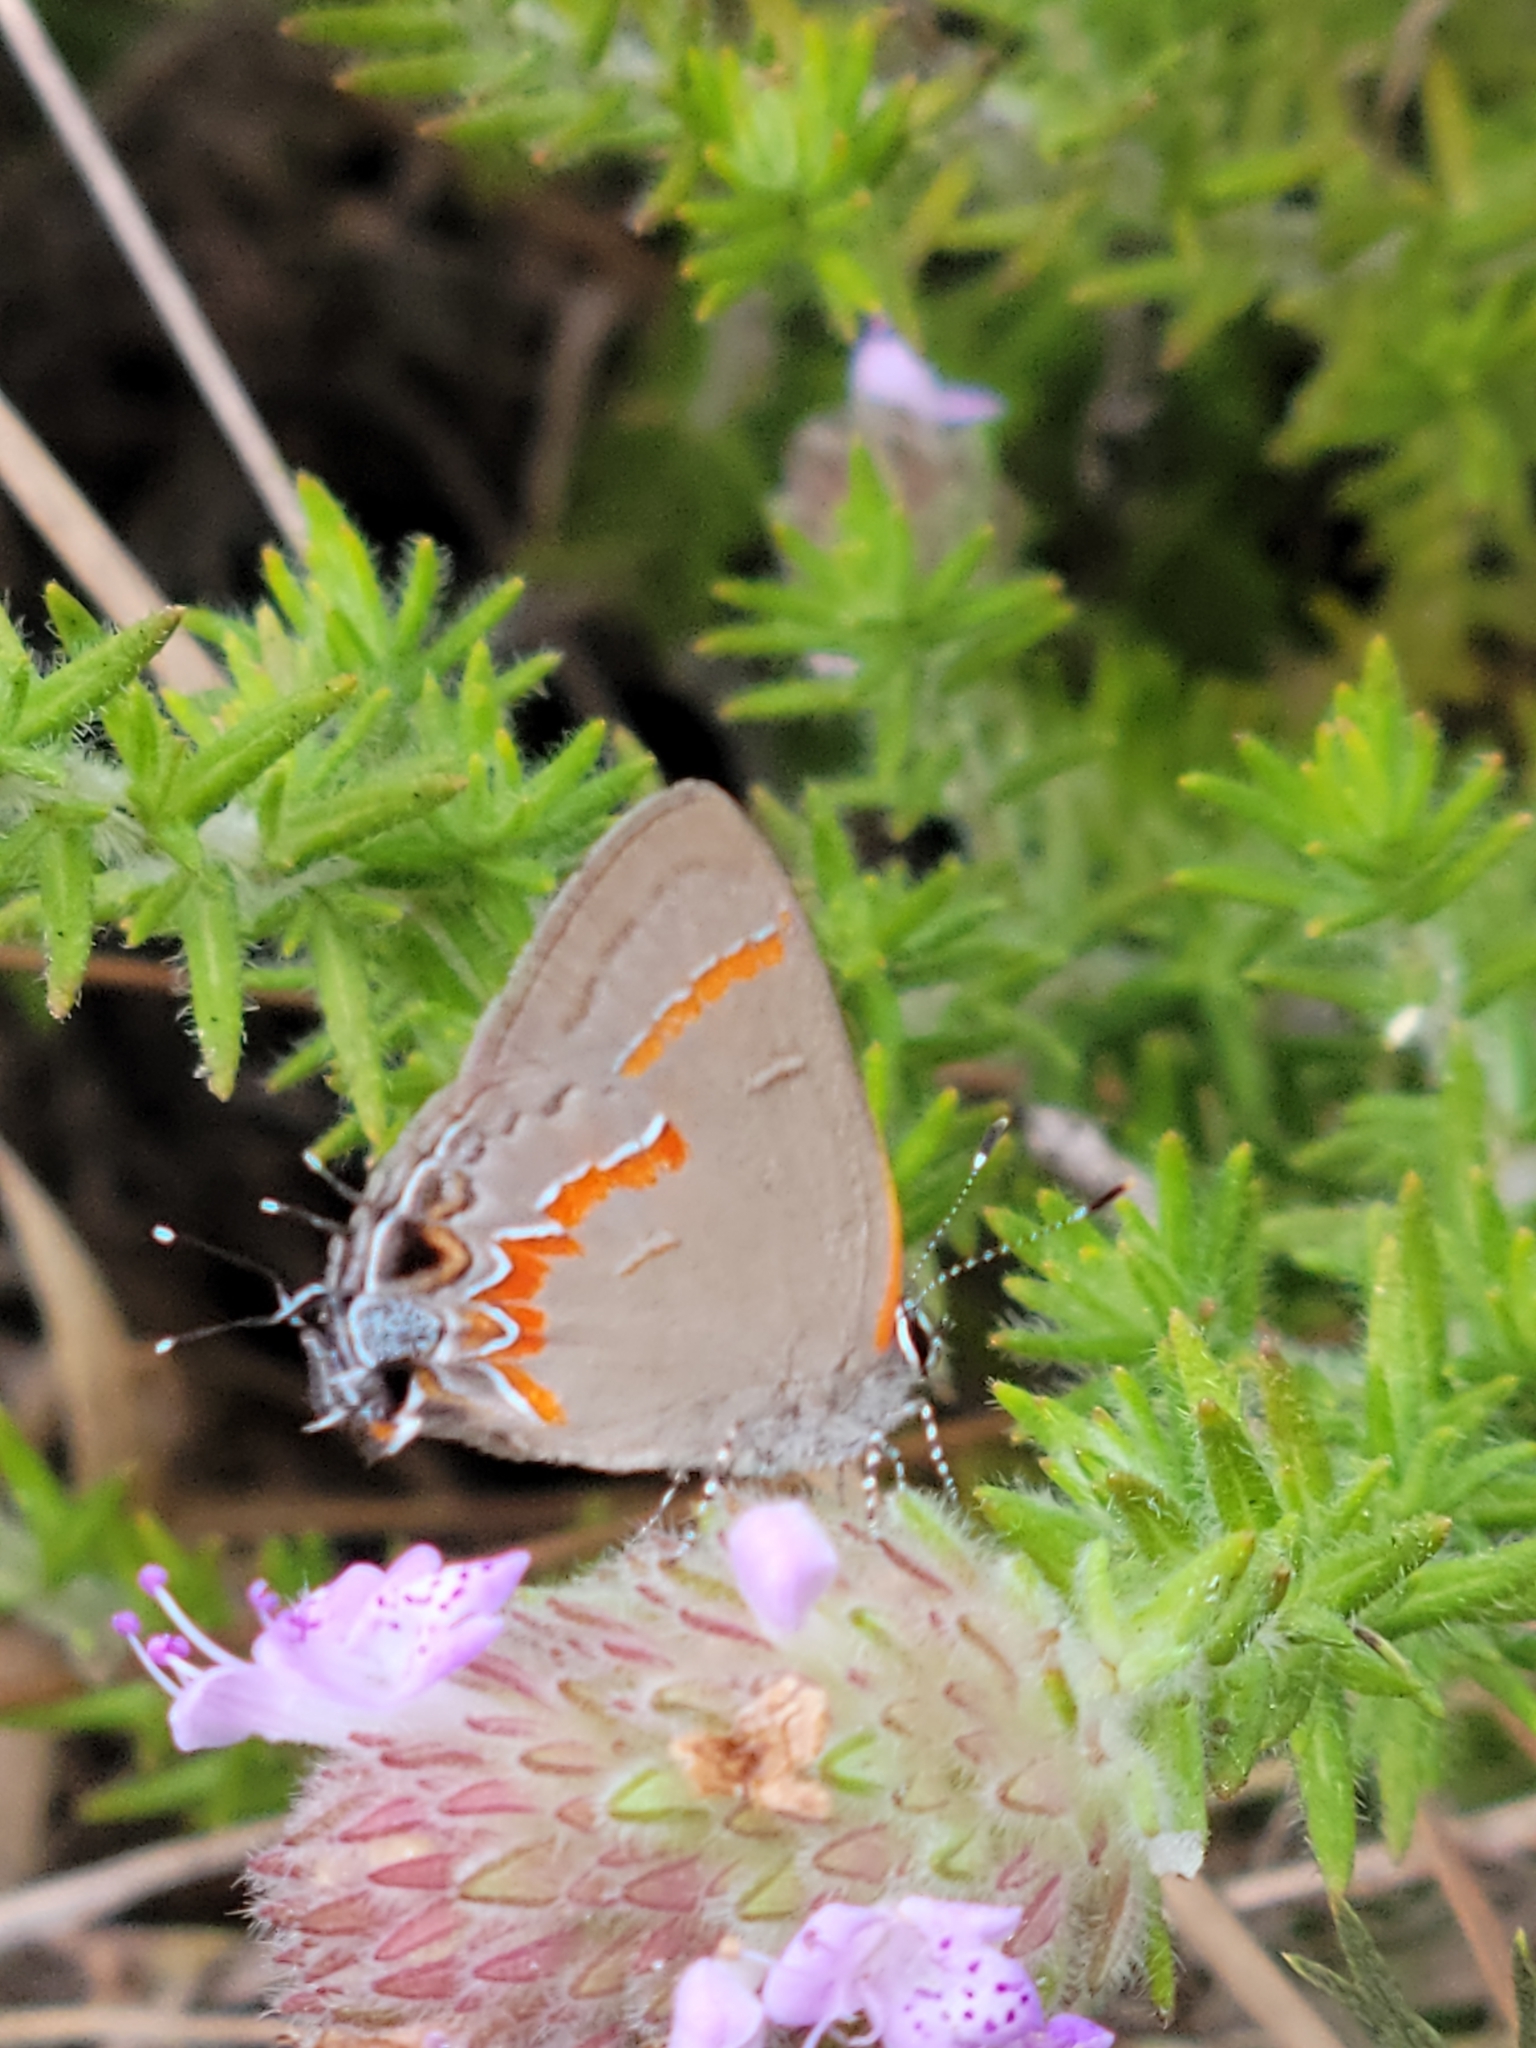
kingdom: Animalia
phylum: Arthropoda
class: Insecta
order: Lepidoptera
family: Lycaenidae
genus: Calycopis
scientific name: Calycopis cecrops
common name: Red-banded hairstreak
